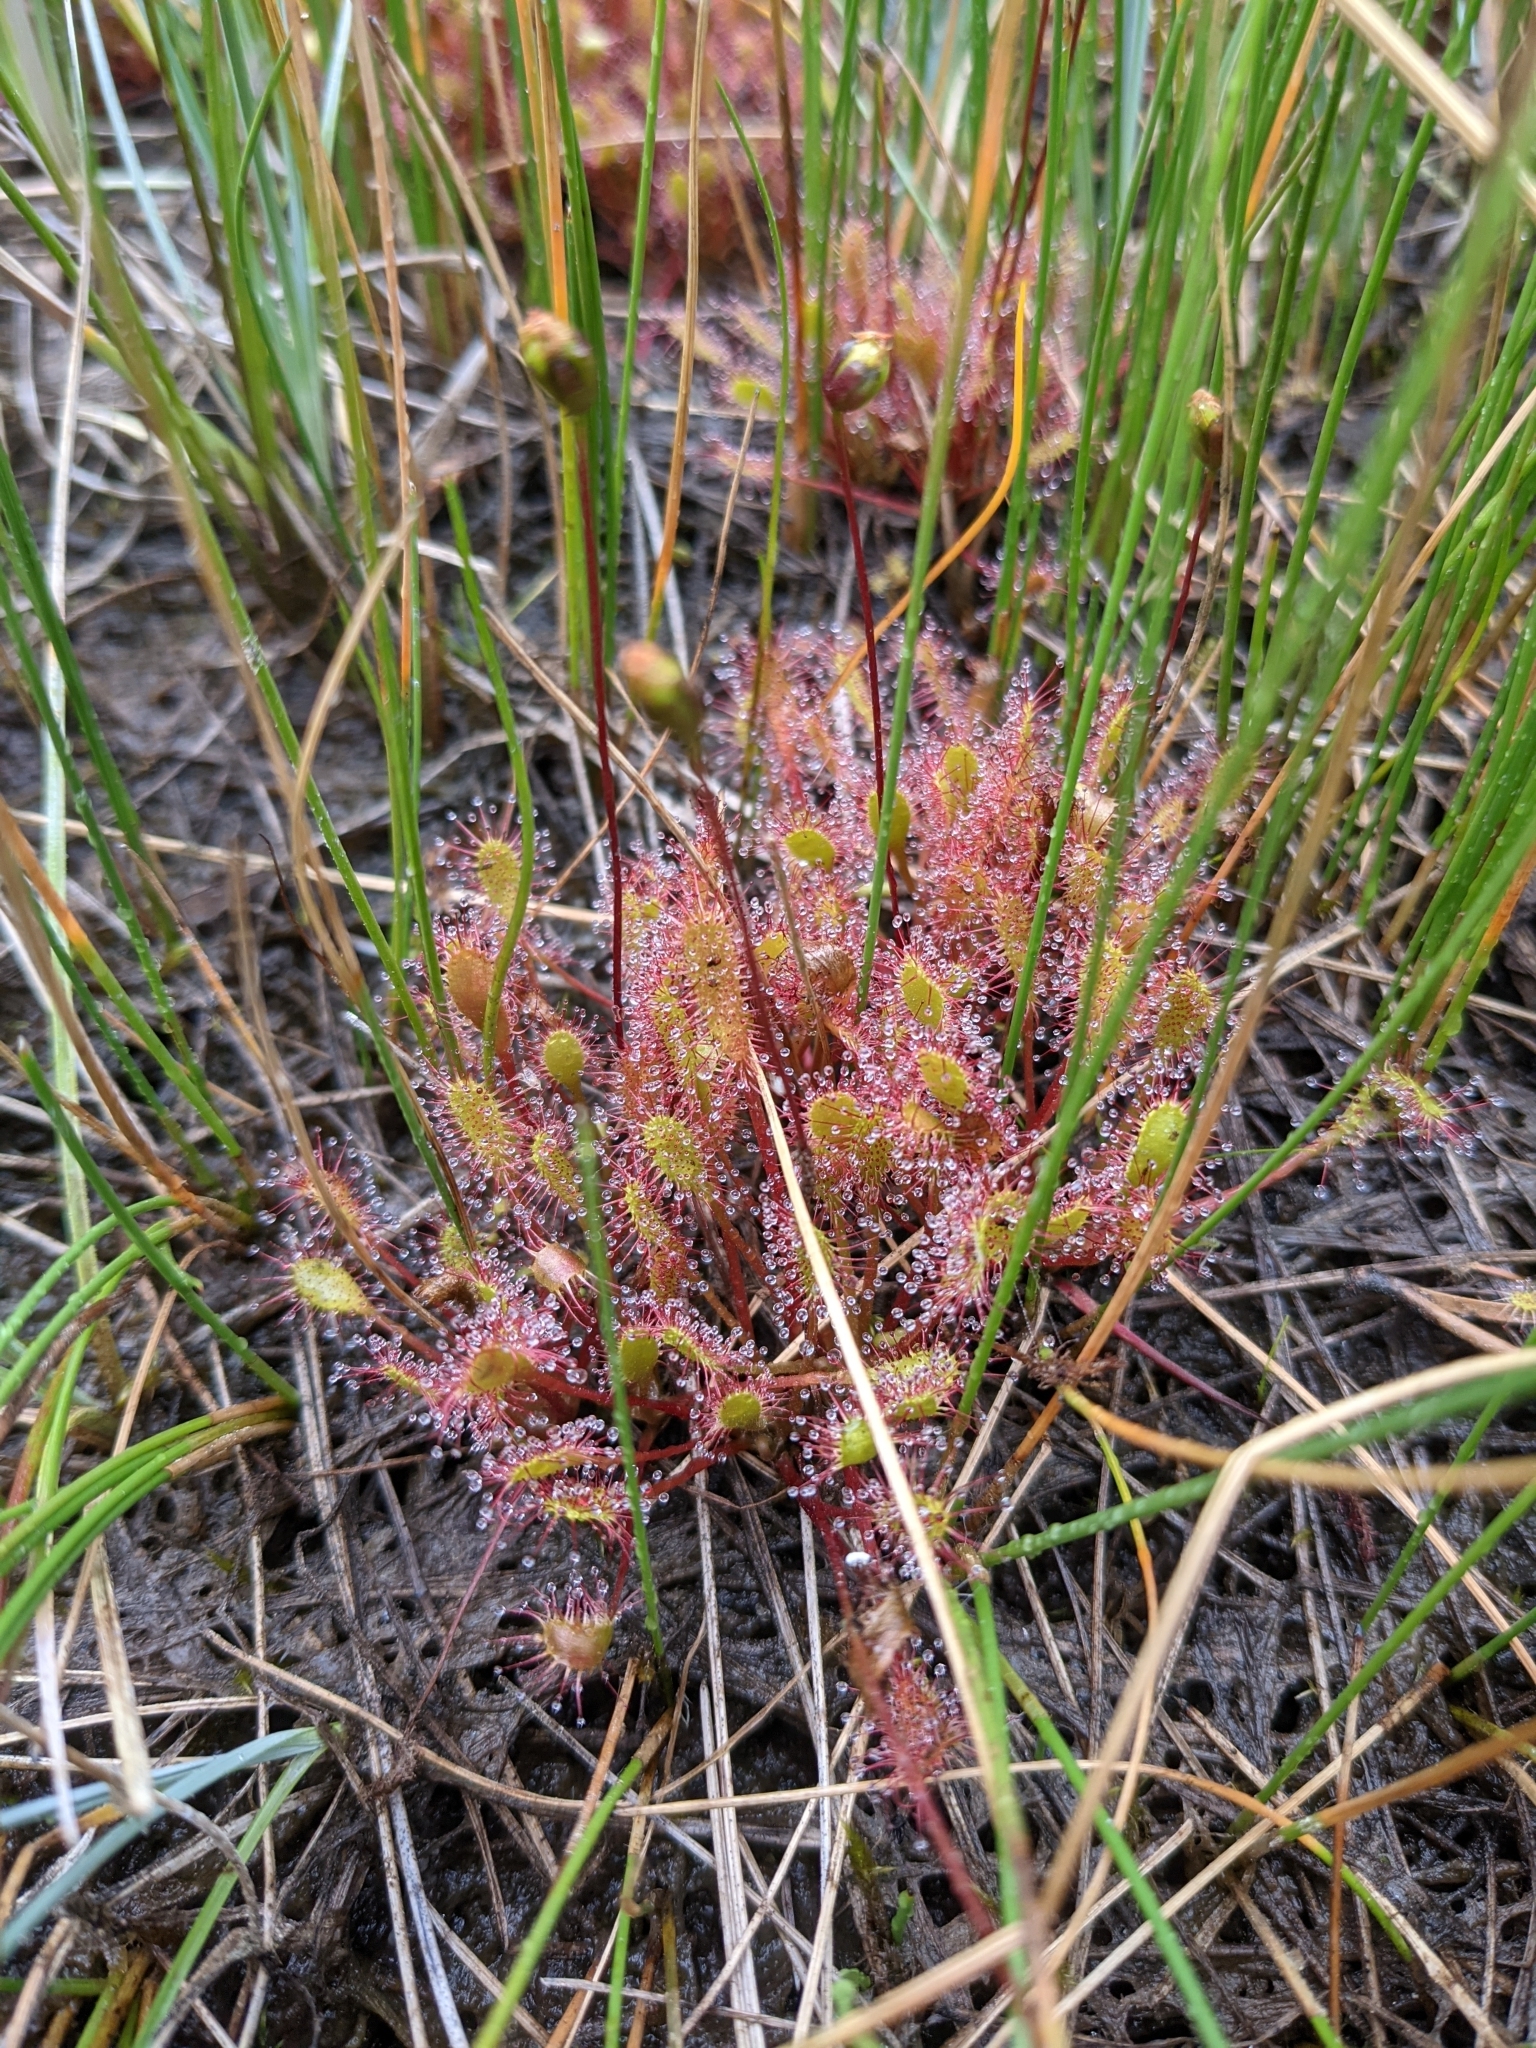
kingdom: Plantae
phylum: Tracheophyta
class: Magnoliopsida
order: Caryophyllales
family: Droseraceae
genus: Drosera
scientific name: Drosera anglica
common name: Great sundew
